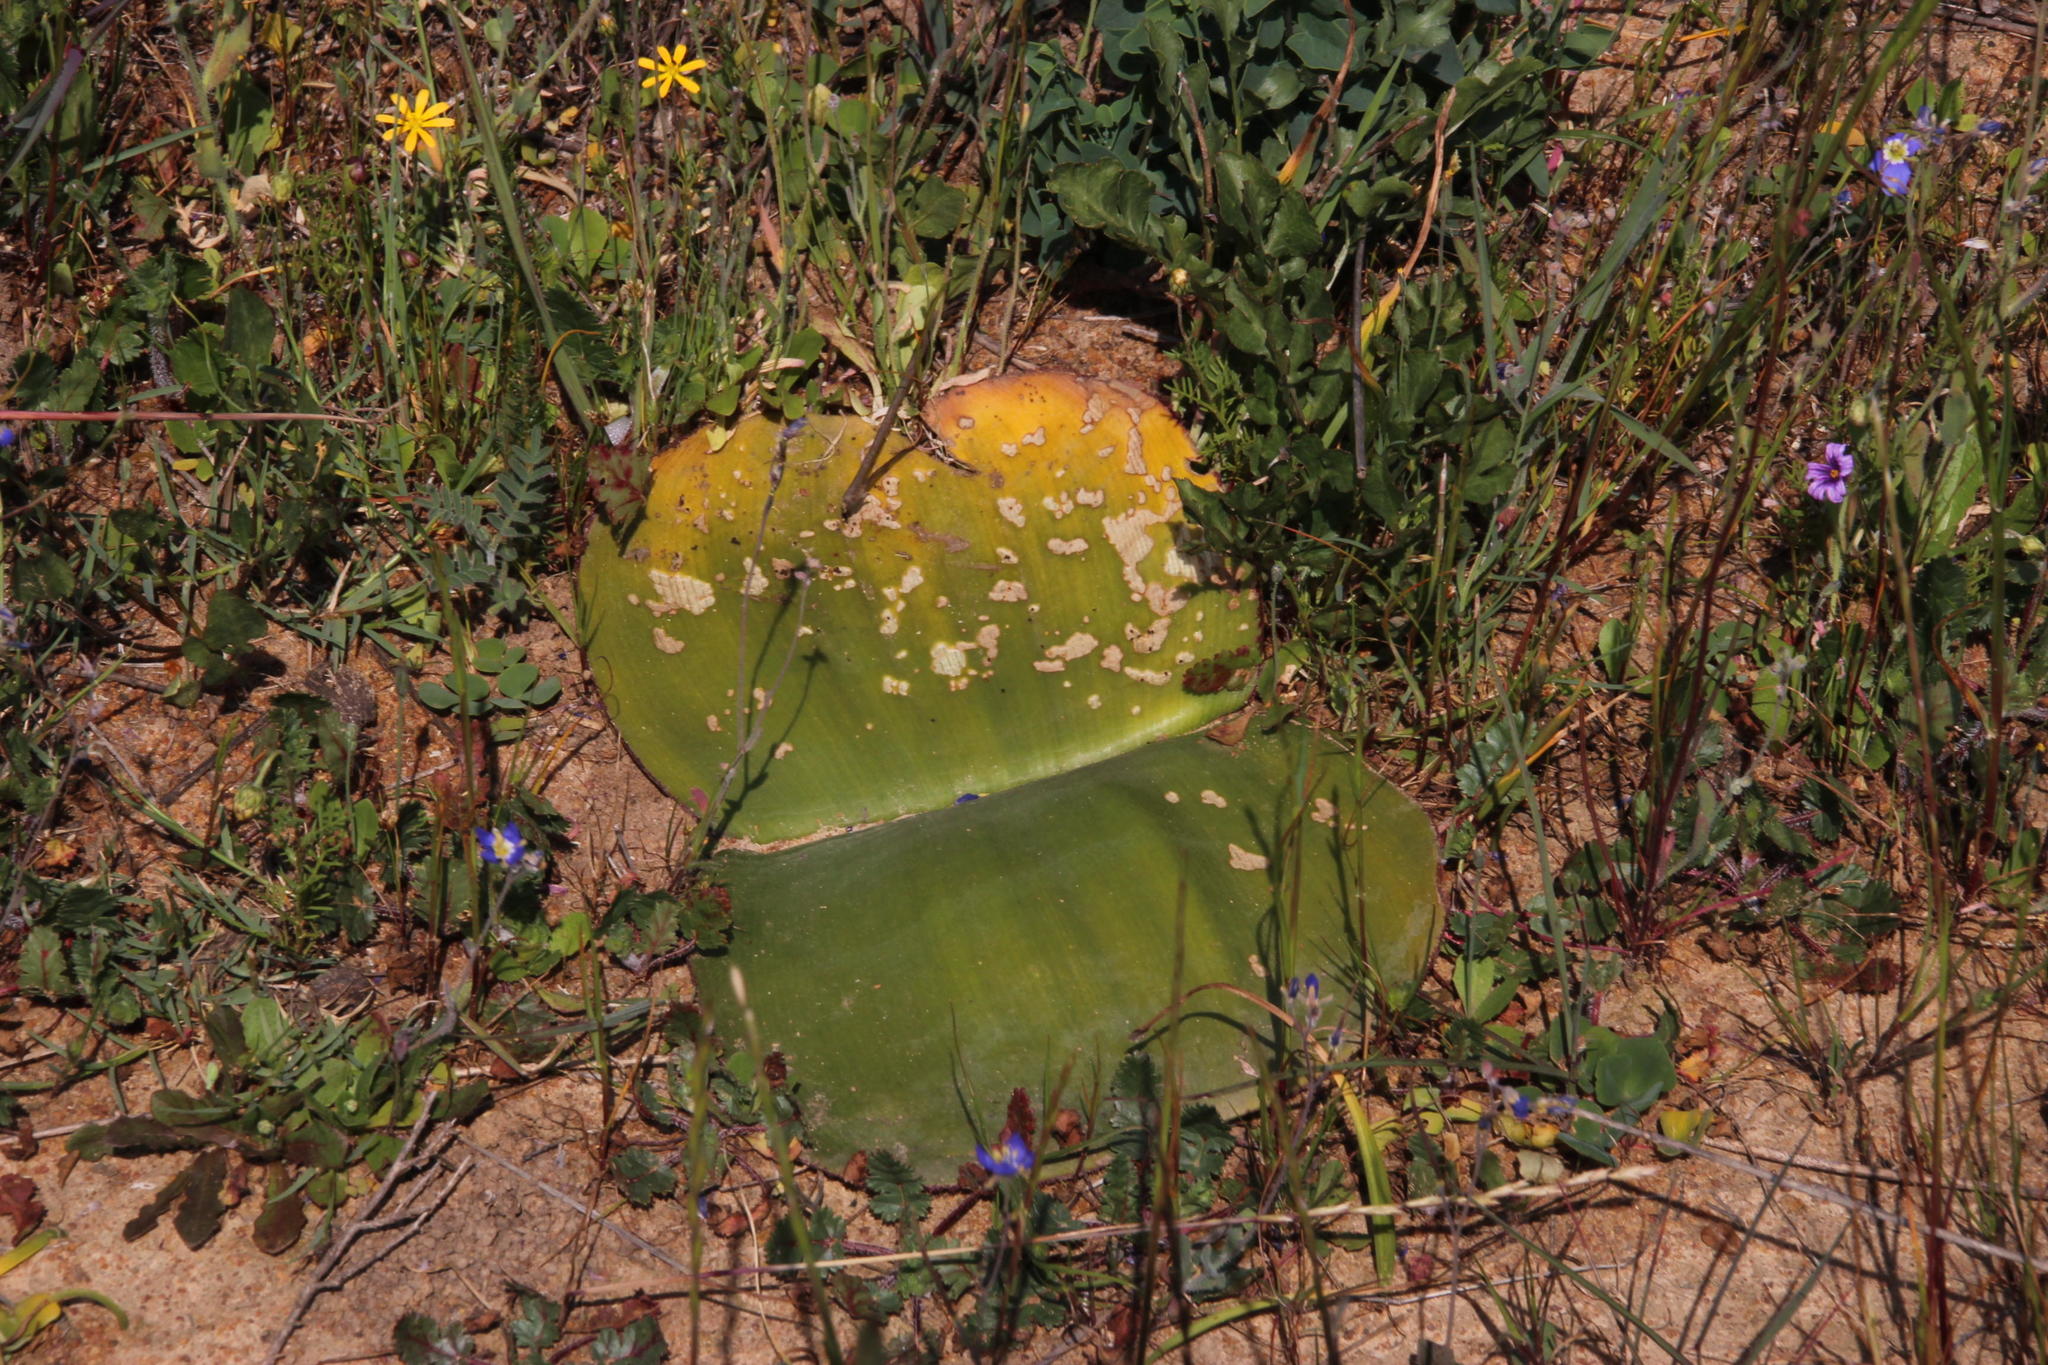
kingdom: Plantae
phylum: Tracheophyta
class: Liliopsida
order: Asparagales
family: Amaryllidaceae
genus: Haemanthus
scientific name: Haemanthus sanguineus
